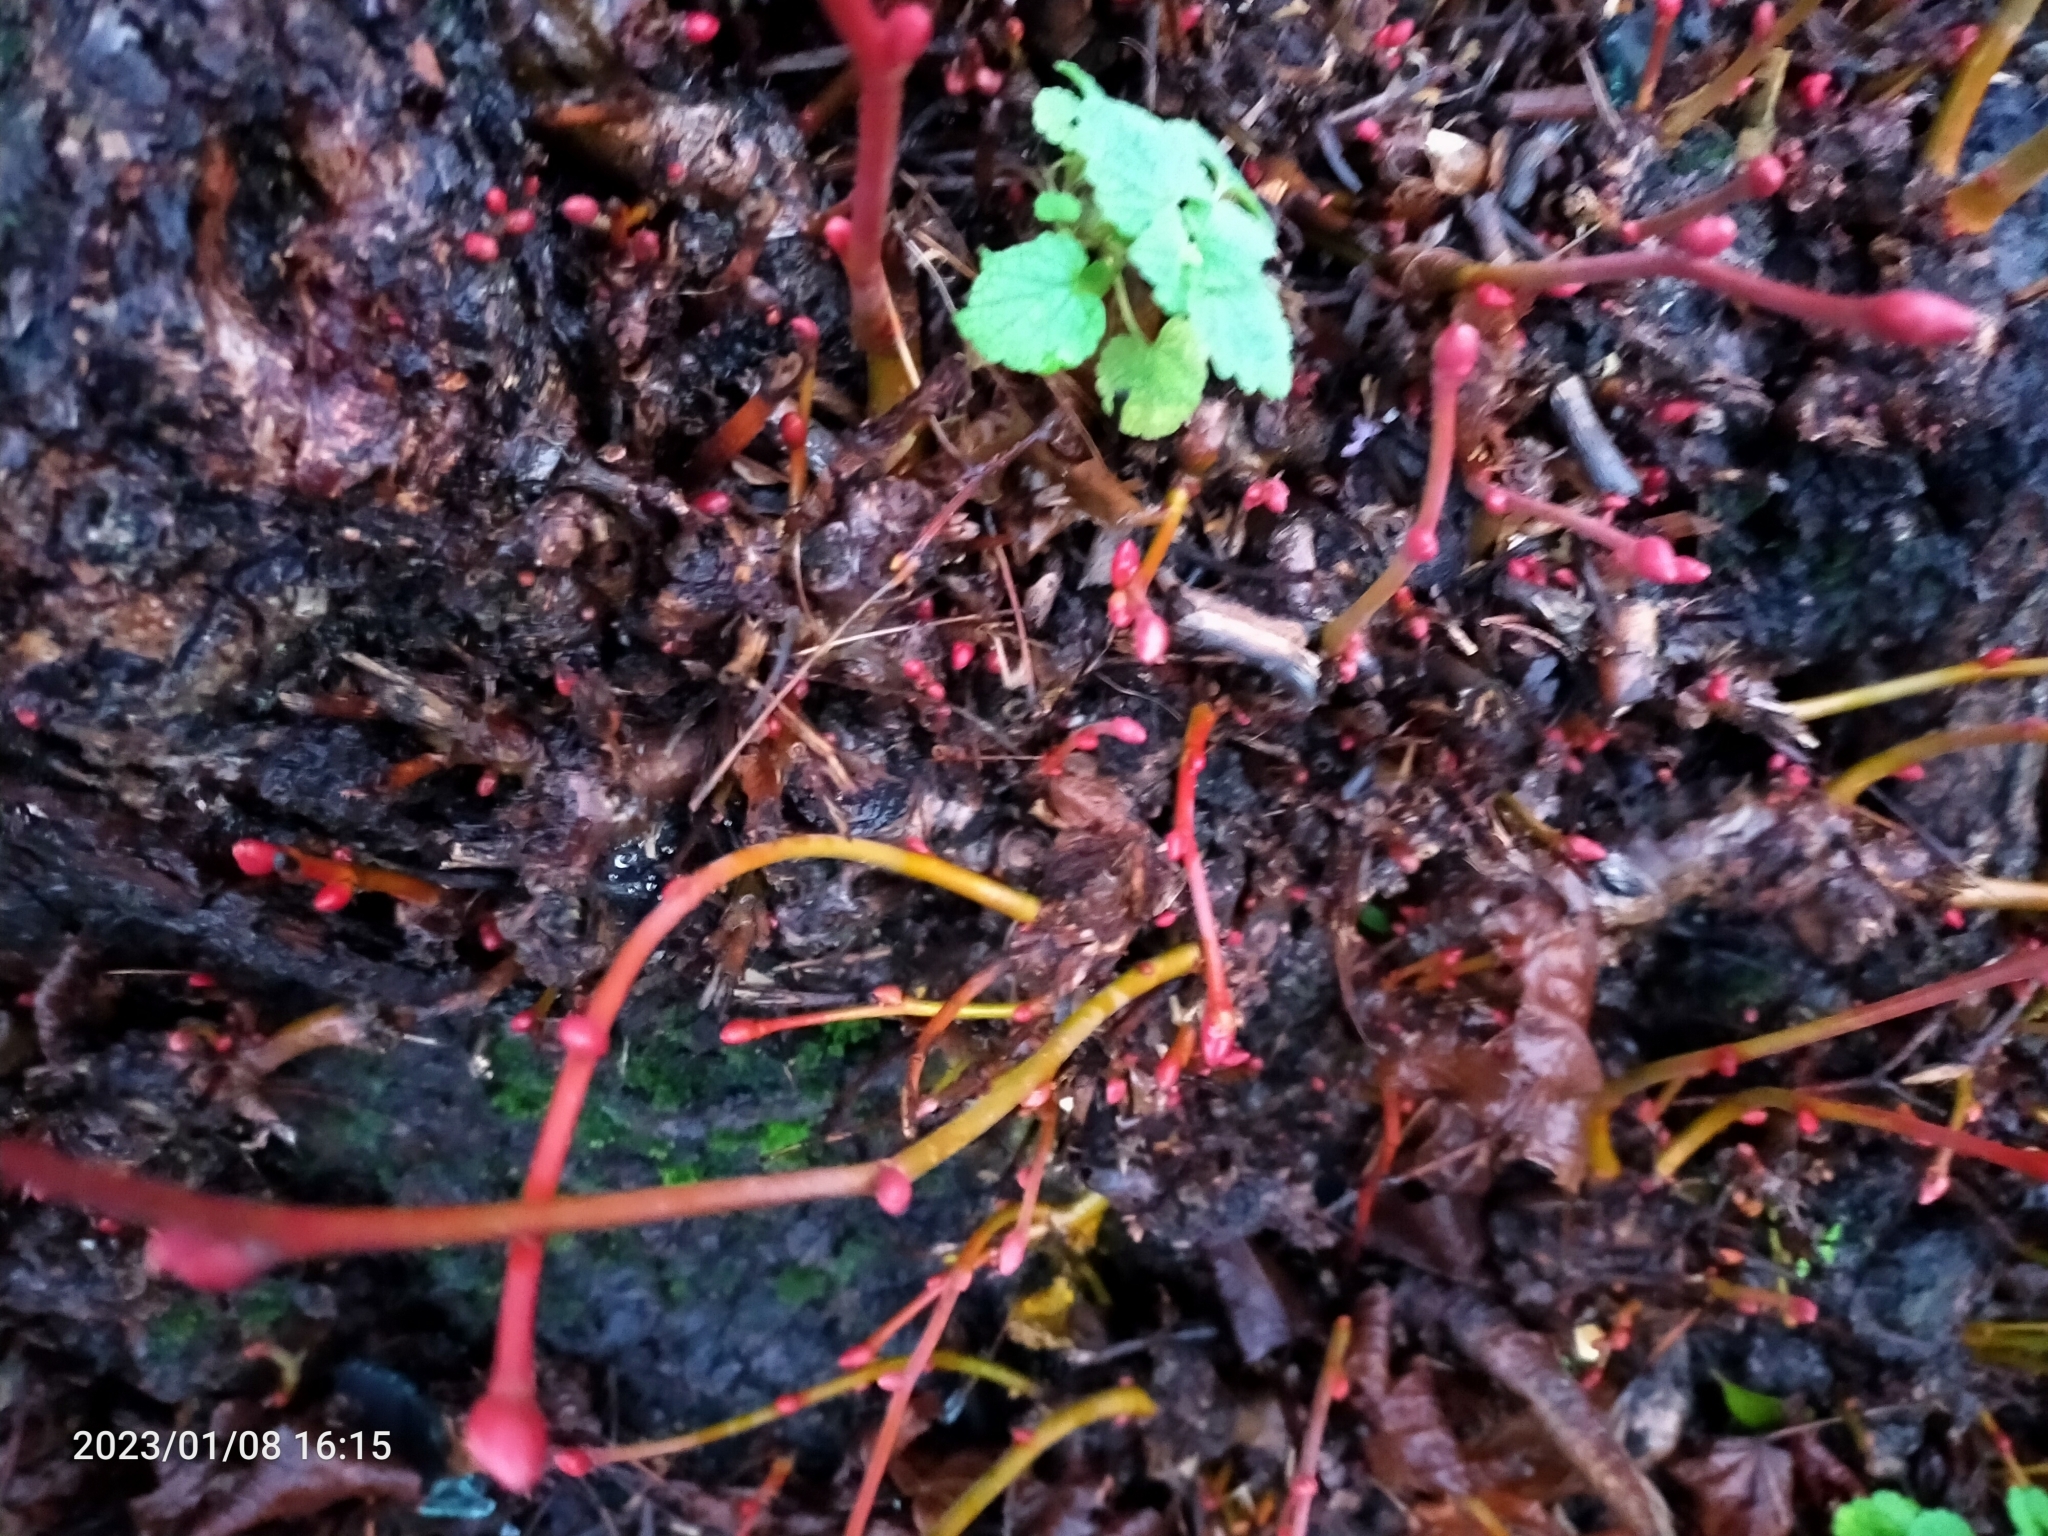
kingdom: Plantae
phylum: Tracheophyta
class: Magnoliopsida
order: Malvales
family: Malvaceae
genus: Tilia
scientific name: Tilia europaea
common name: European linden
